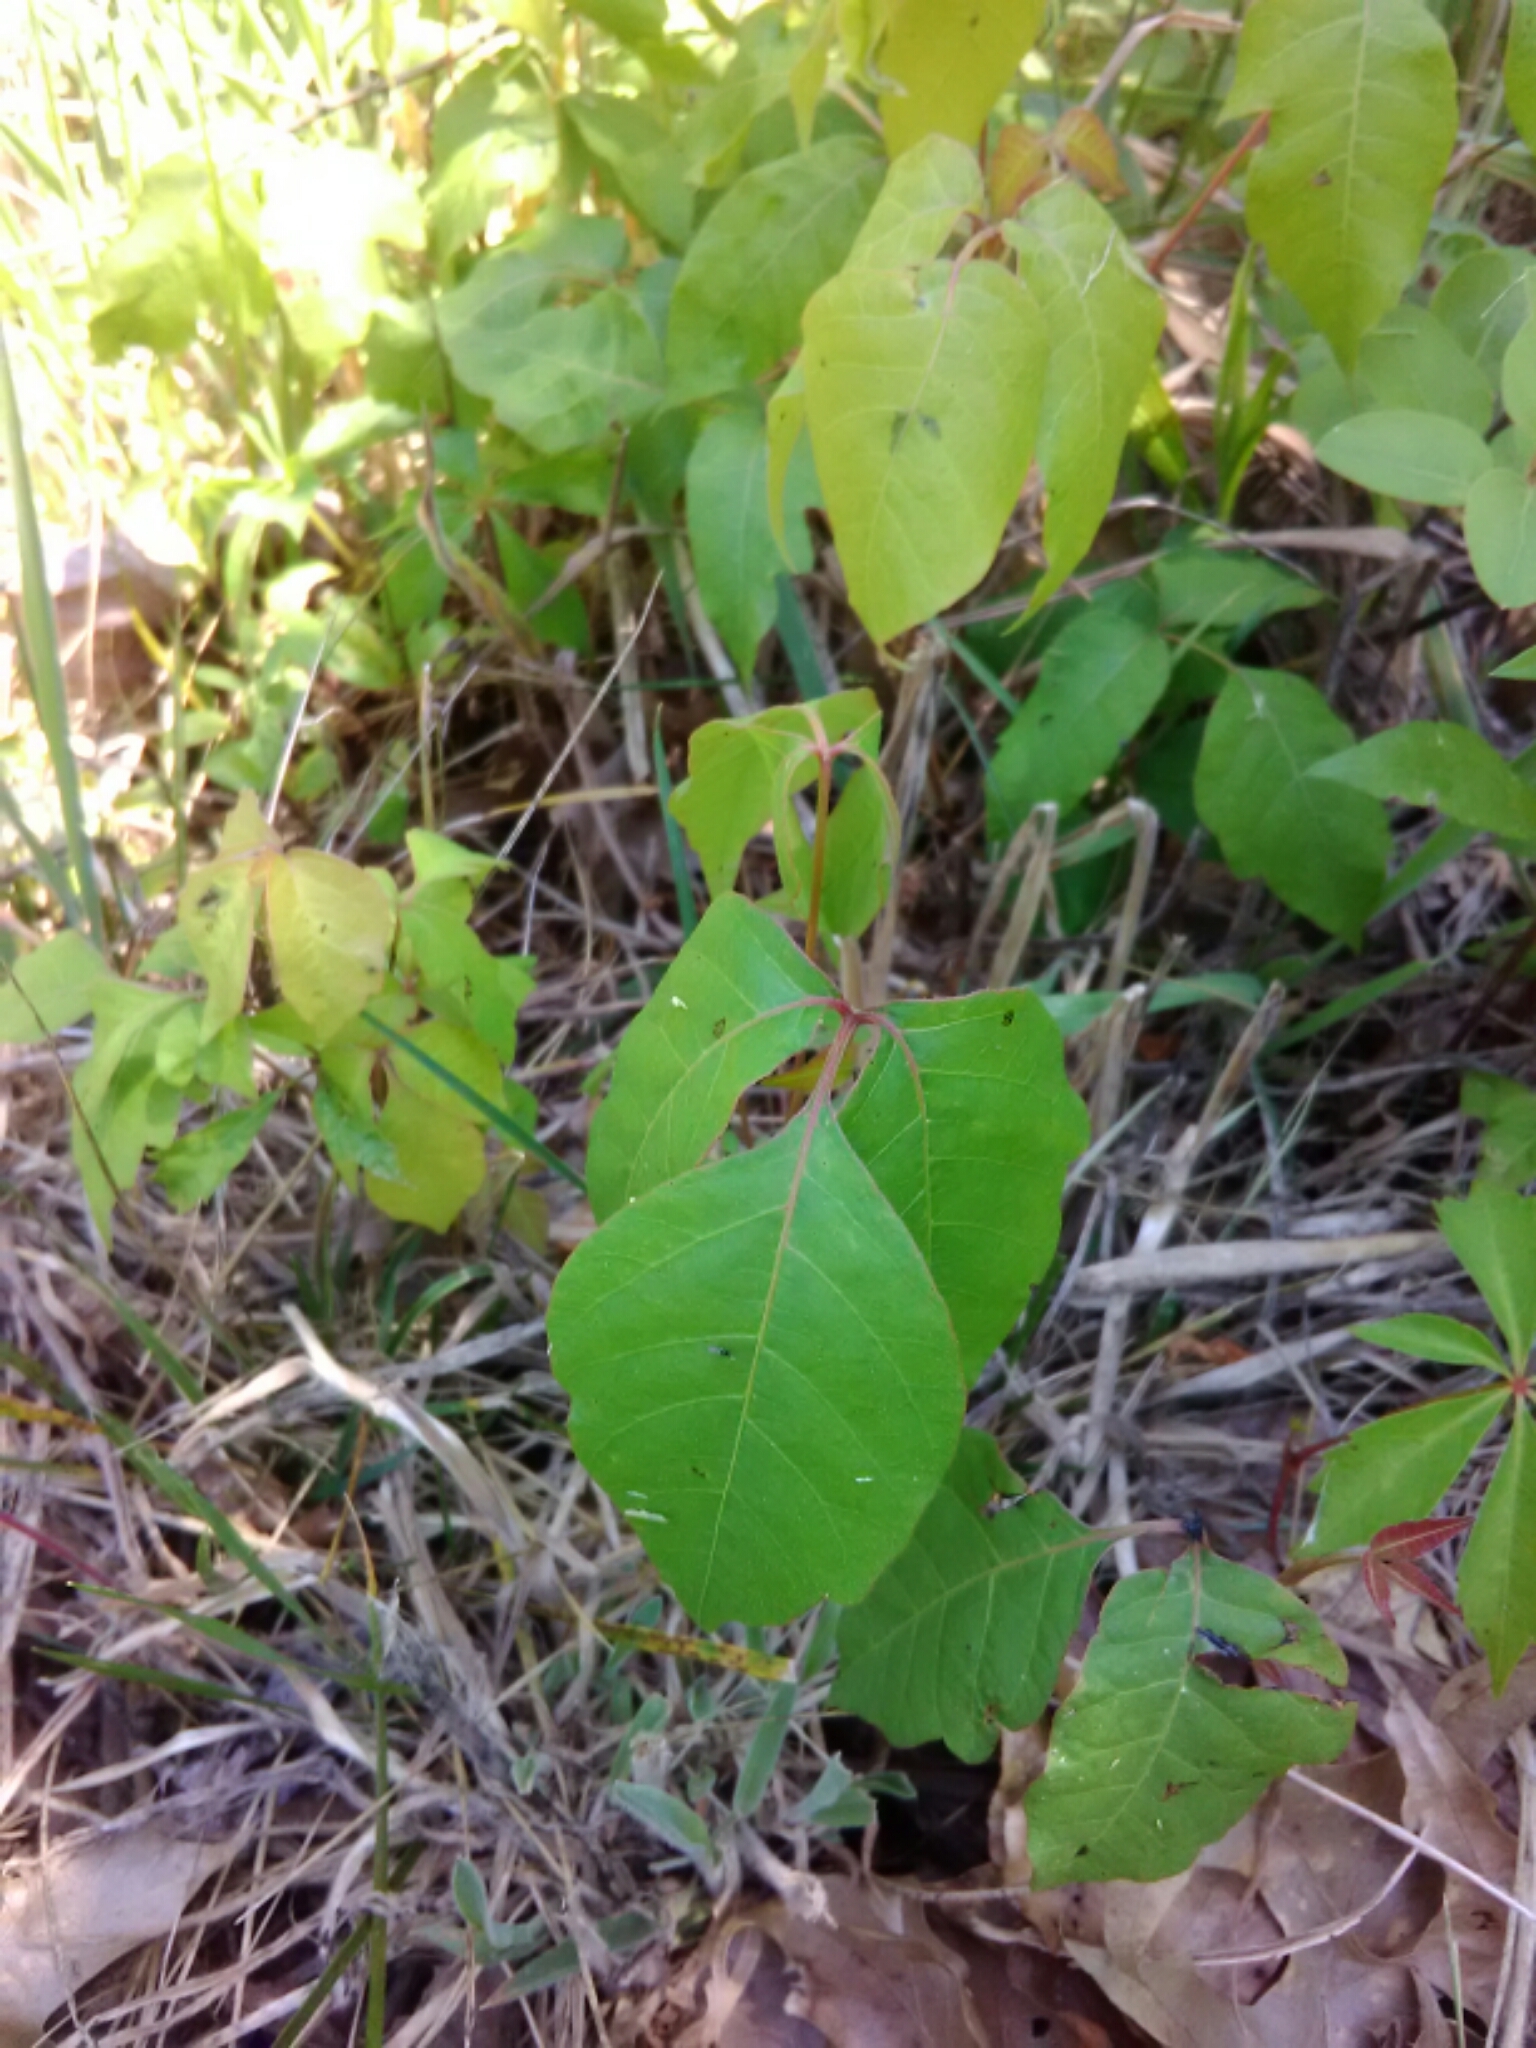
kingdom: Plantae
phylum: Tracheophyta
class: Magnoliopsida
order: Sapindales
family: Anacardiaceae
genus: Toxicodendron
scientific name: Toxicodendron radicans
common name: Poison ivy
